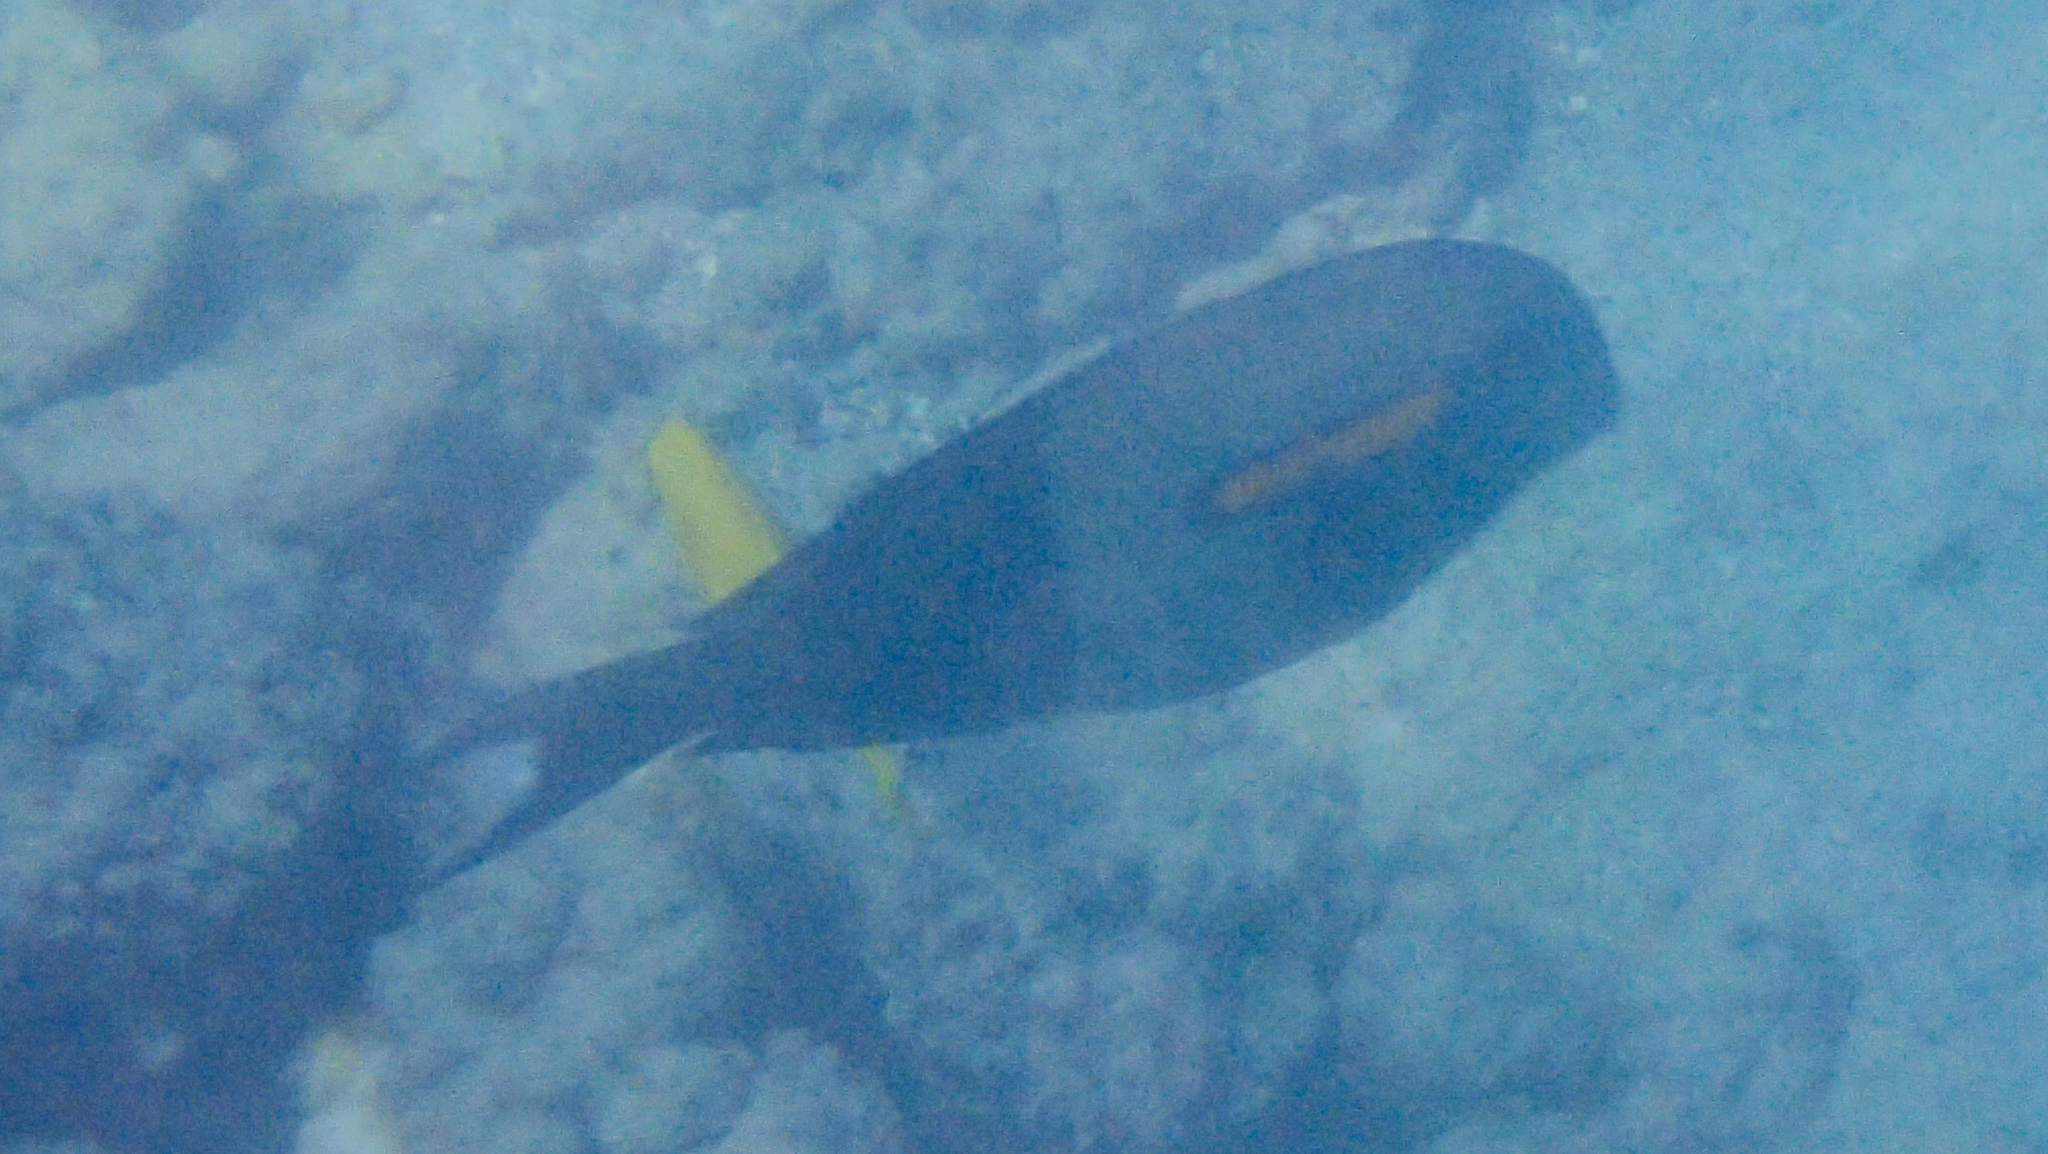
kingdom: Animalia
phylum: Chordata
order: Perciformes
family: Acanthuridae
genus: Acanthurus
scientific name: Acanthurus olivaceus
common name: Gendarme fish
